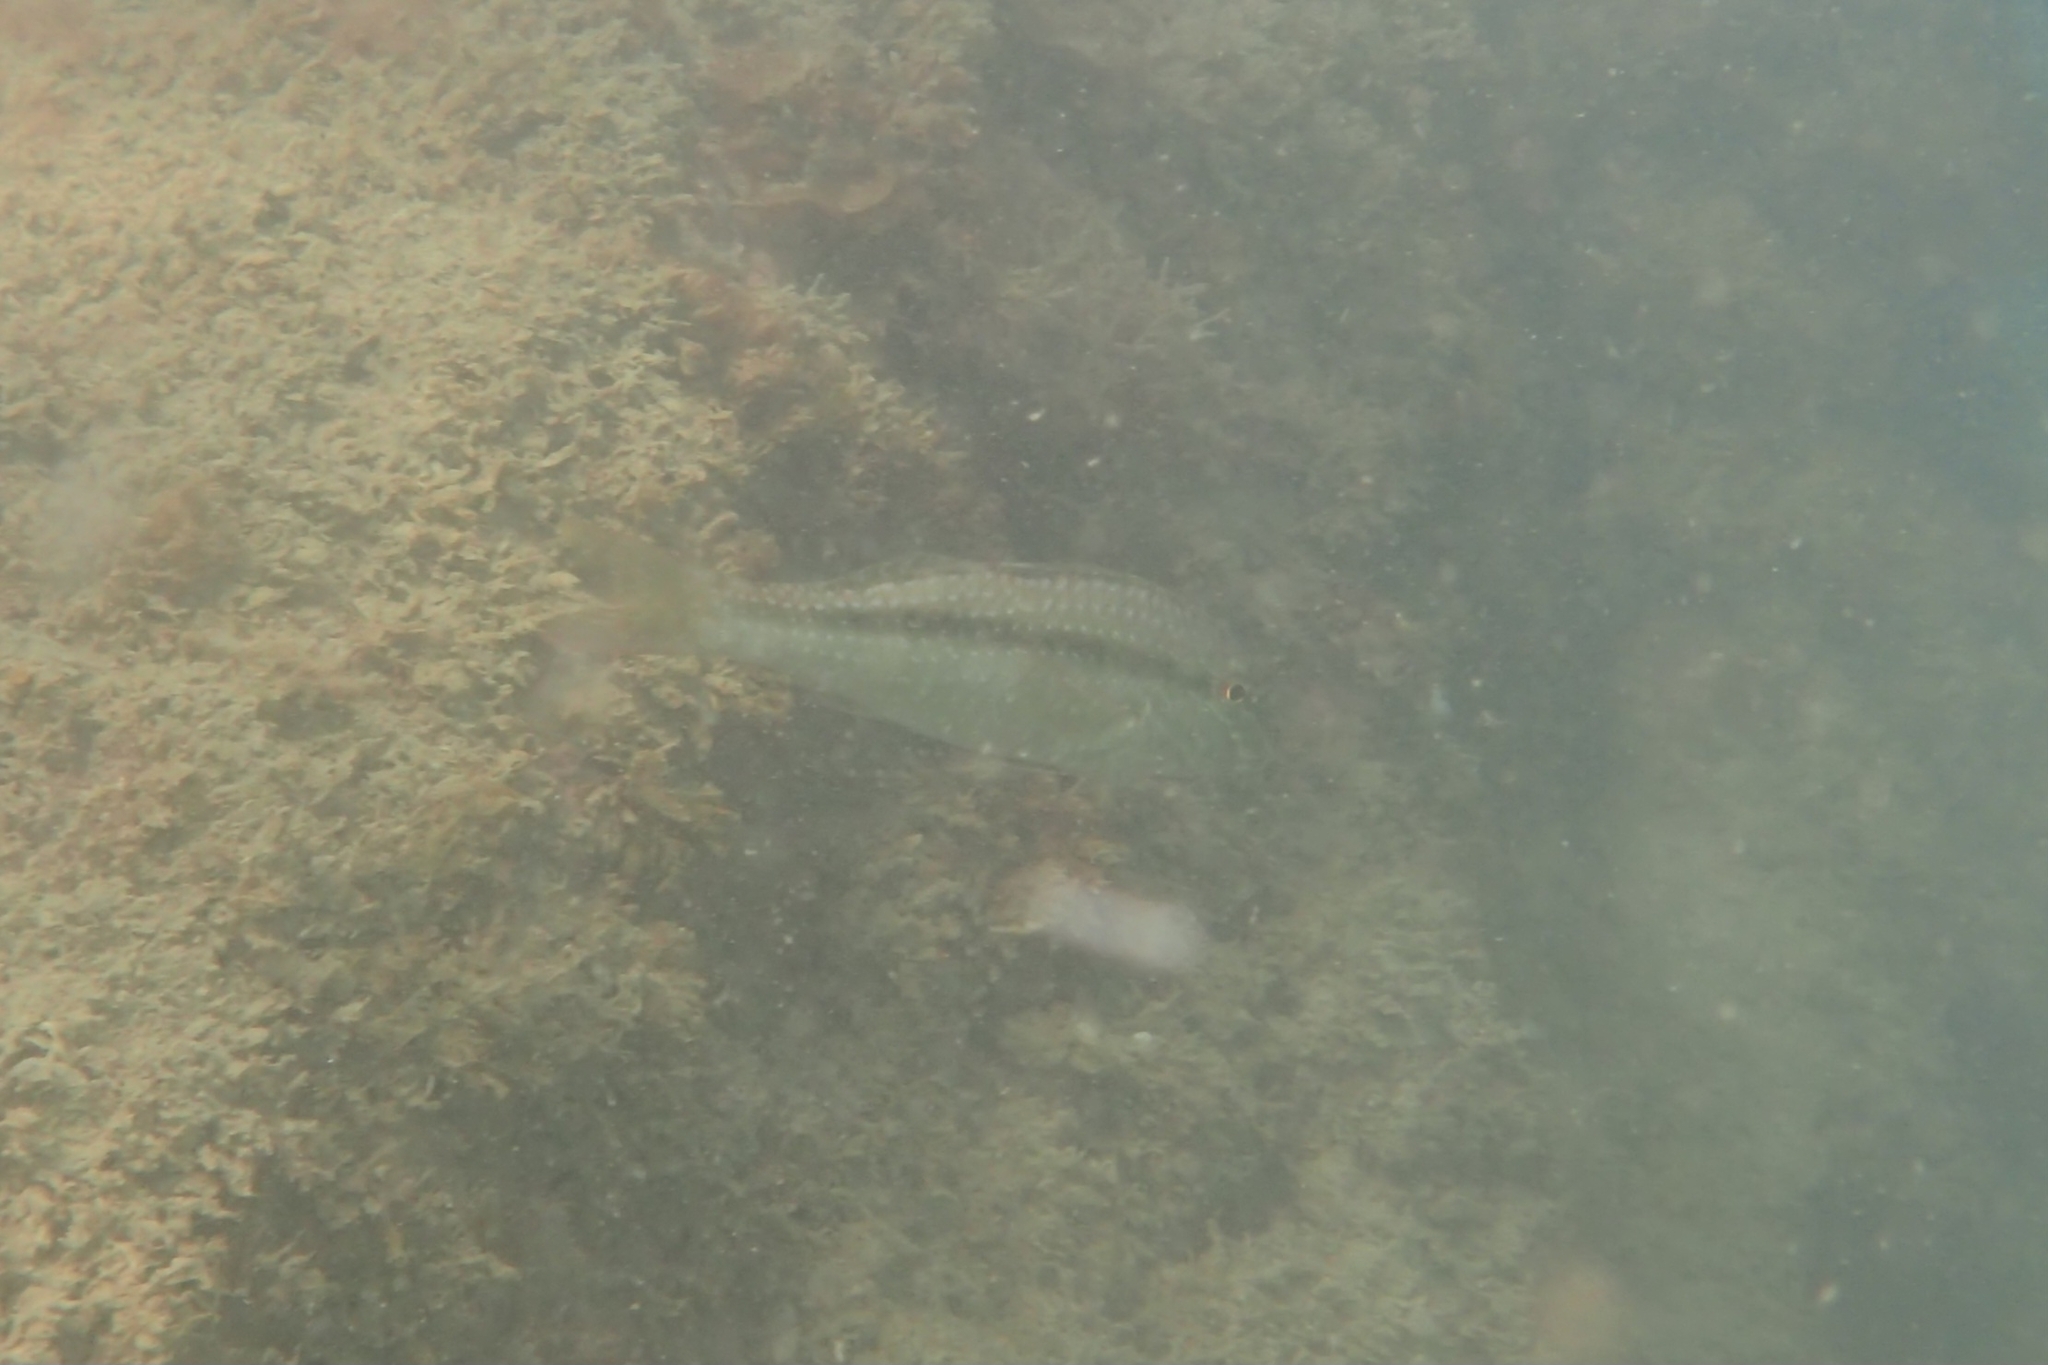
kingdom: Animalia
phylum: Chordata
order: Perciformes
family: Mullidae
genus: Upeneichthys
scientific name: Upeneichthys lineatus
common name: Red mullet
